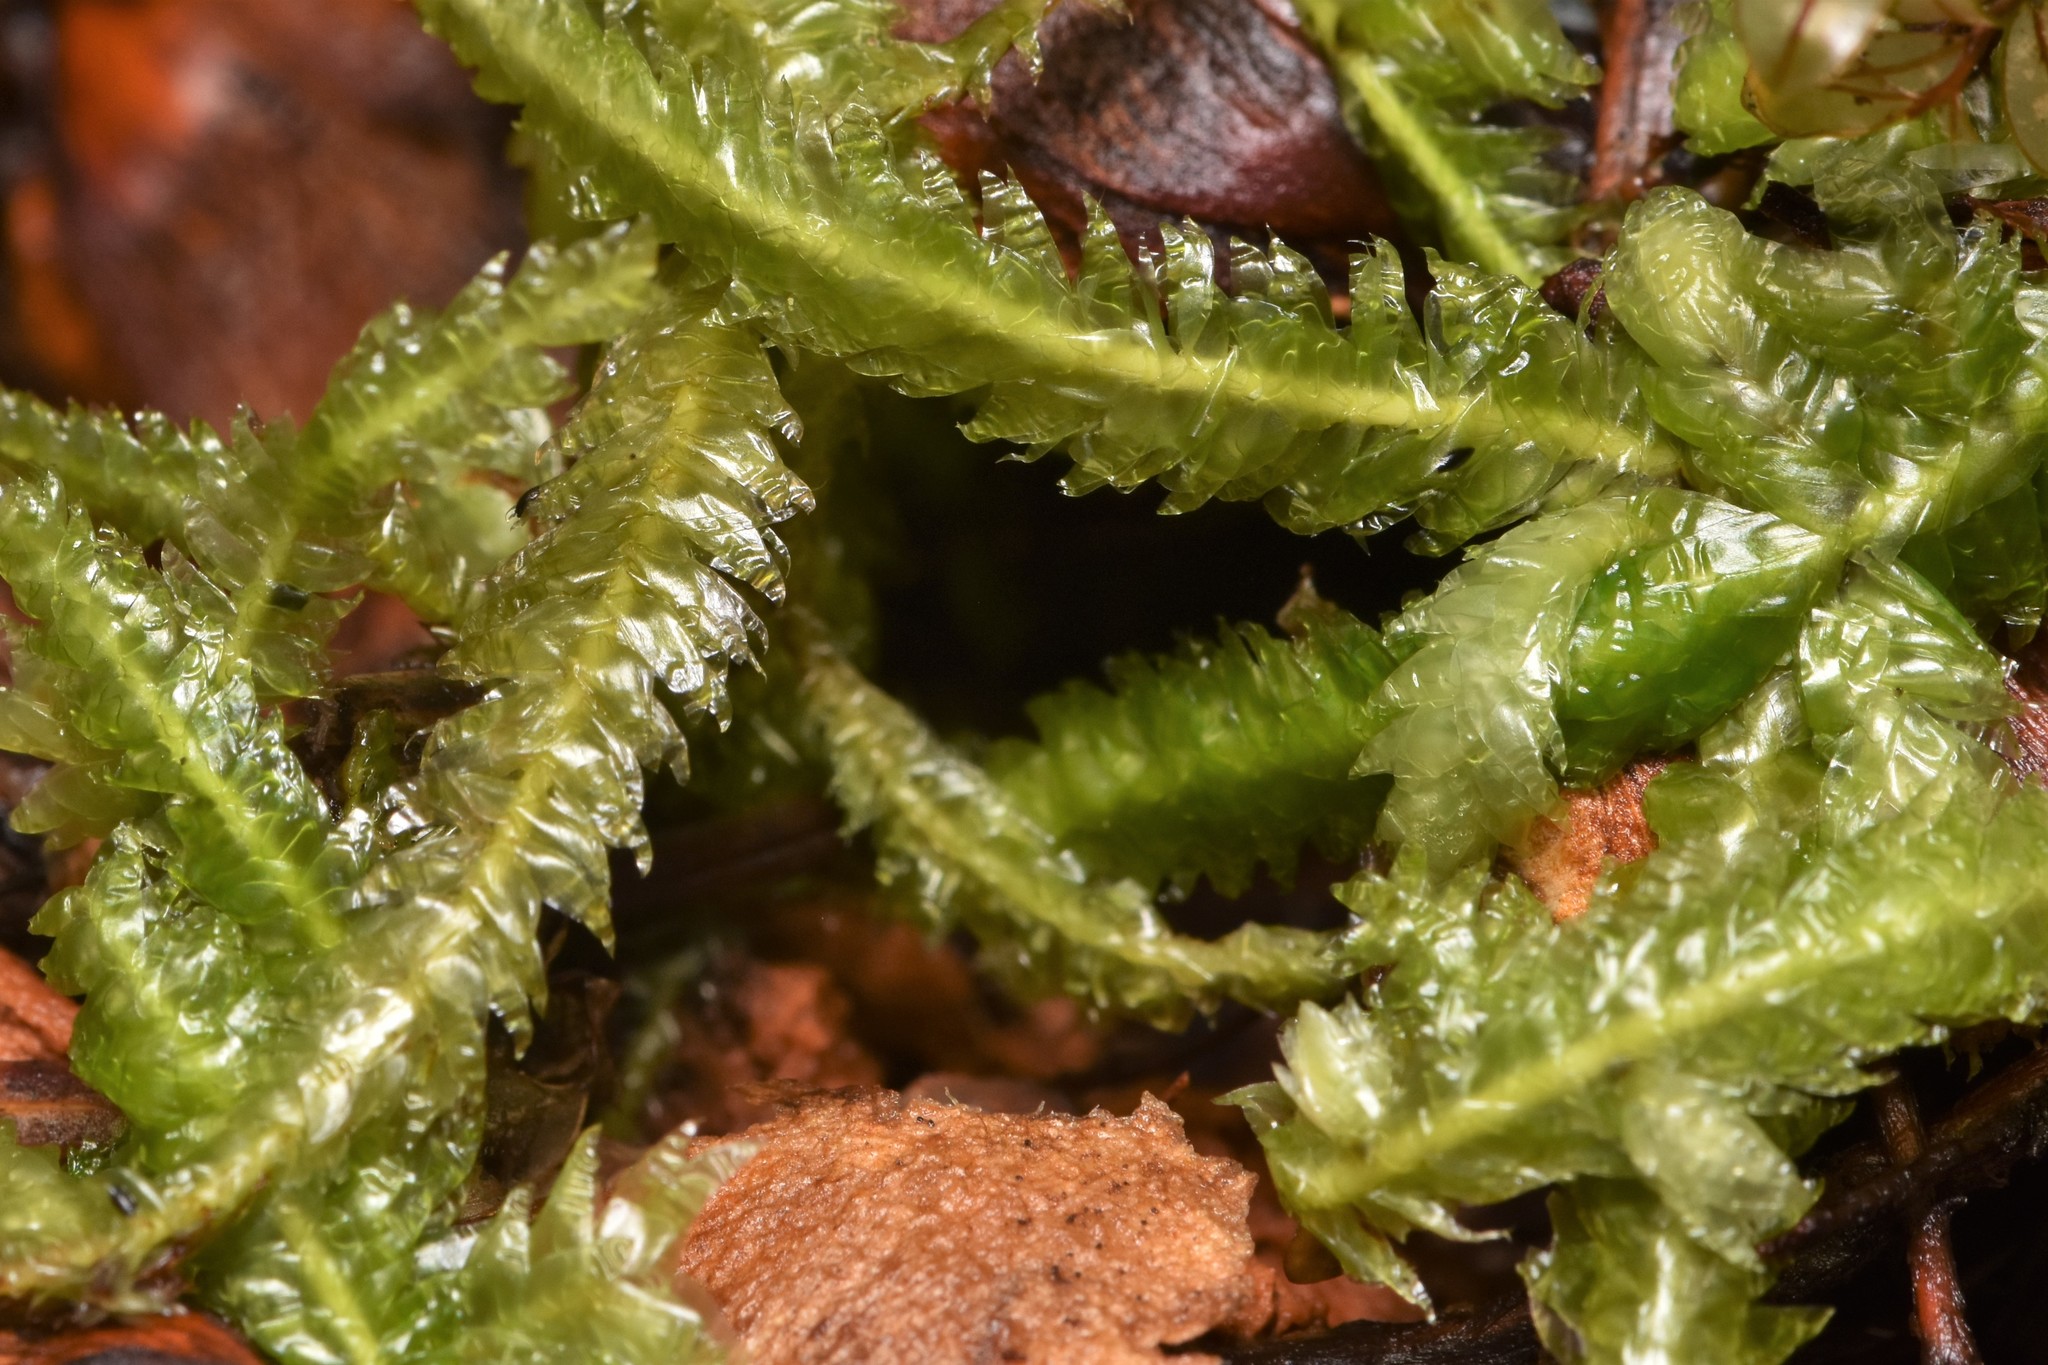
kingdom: Plantae
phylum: Bryophyta
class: Bryopsida
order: Hypnales
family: Plagiotheciaceae
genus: Plagiothecium
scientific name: Plagiothecium undulatum
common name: Waved silk-moss
